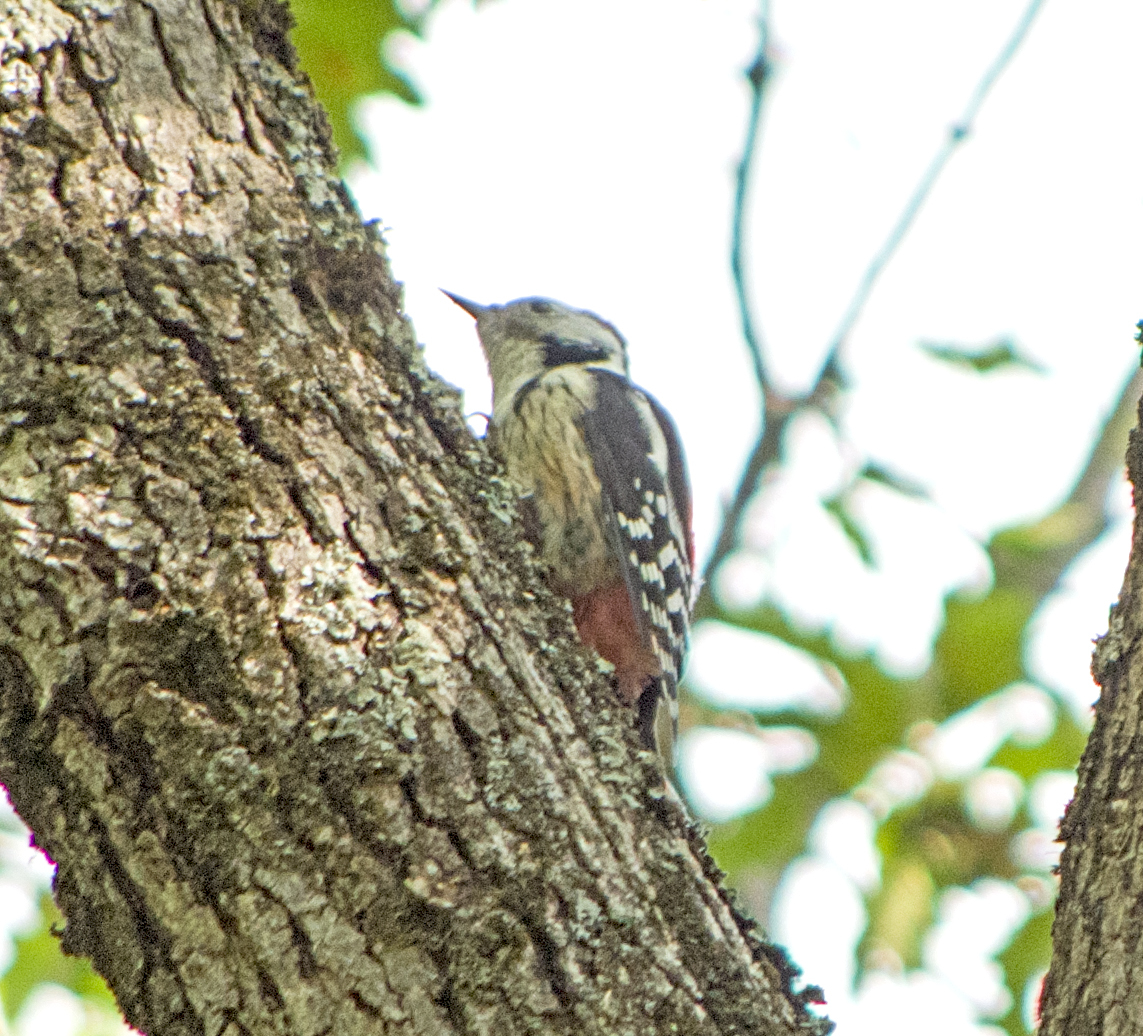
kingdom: Animalia
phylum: Chordata
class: Aves
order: Piciformes
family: Picidae
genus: Dendrocoptes
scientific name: Dendrocoptes medius
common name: Middle spotted woodpecker
